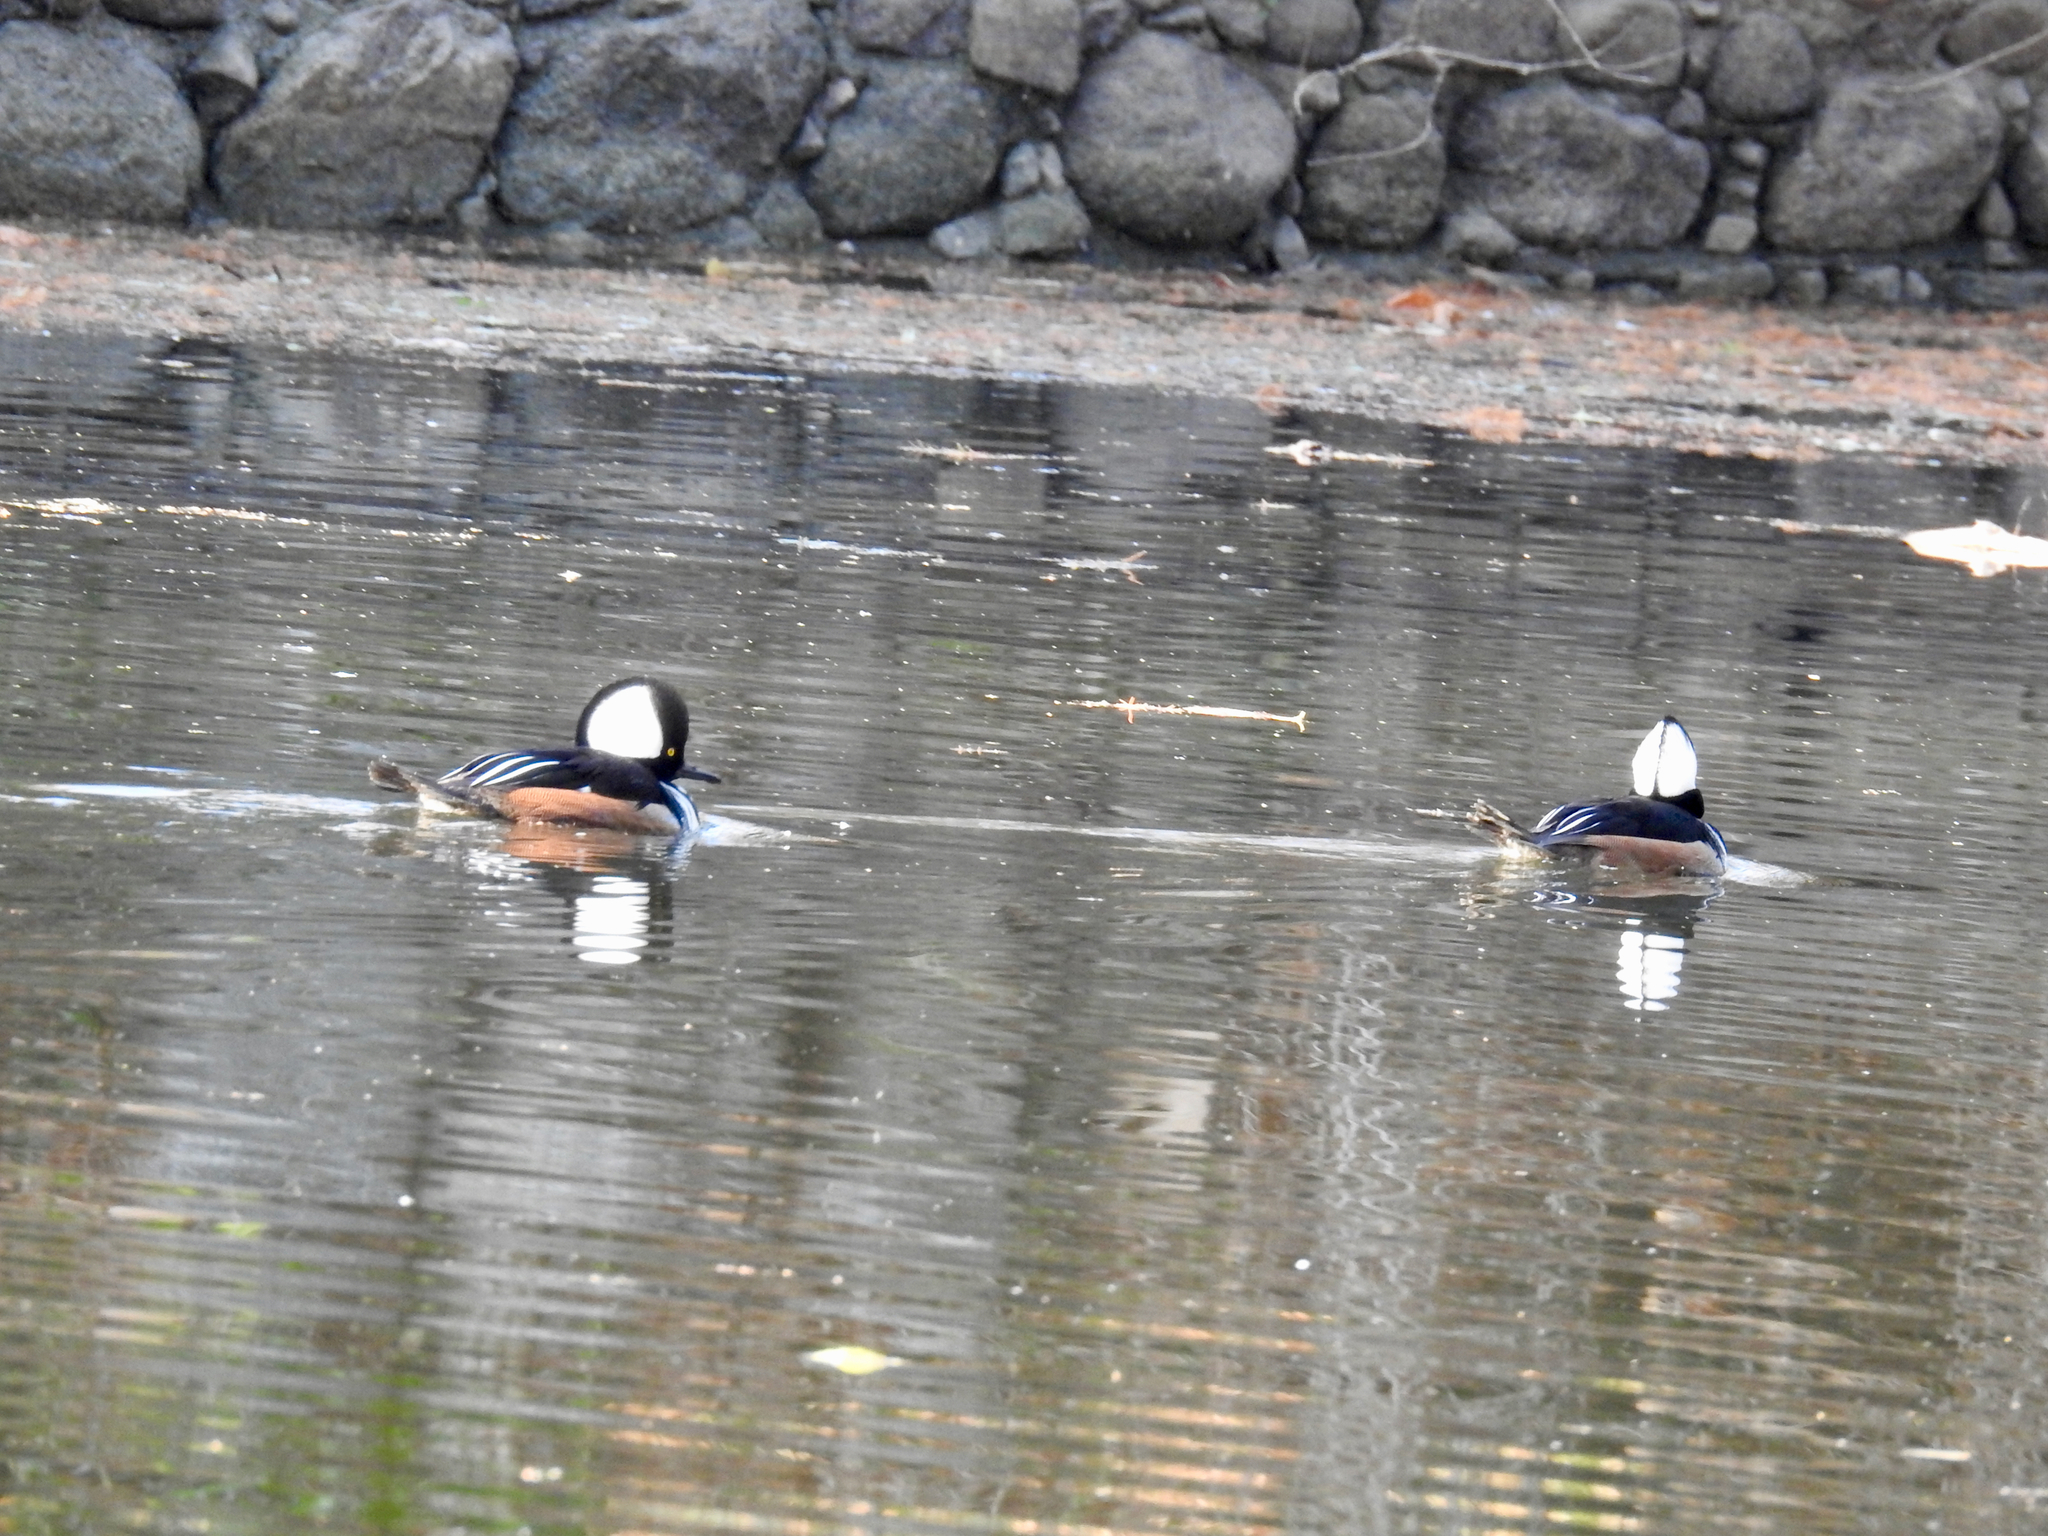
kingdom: Animalia
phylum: Chordata
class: Aves
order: Anseriformes
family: Anatidae
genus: Lophodytes
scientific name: Lophodytes cucullatus
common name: Hooded merganser
